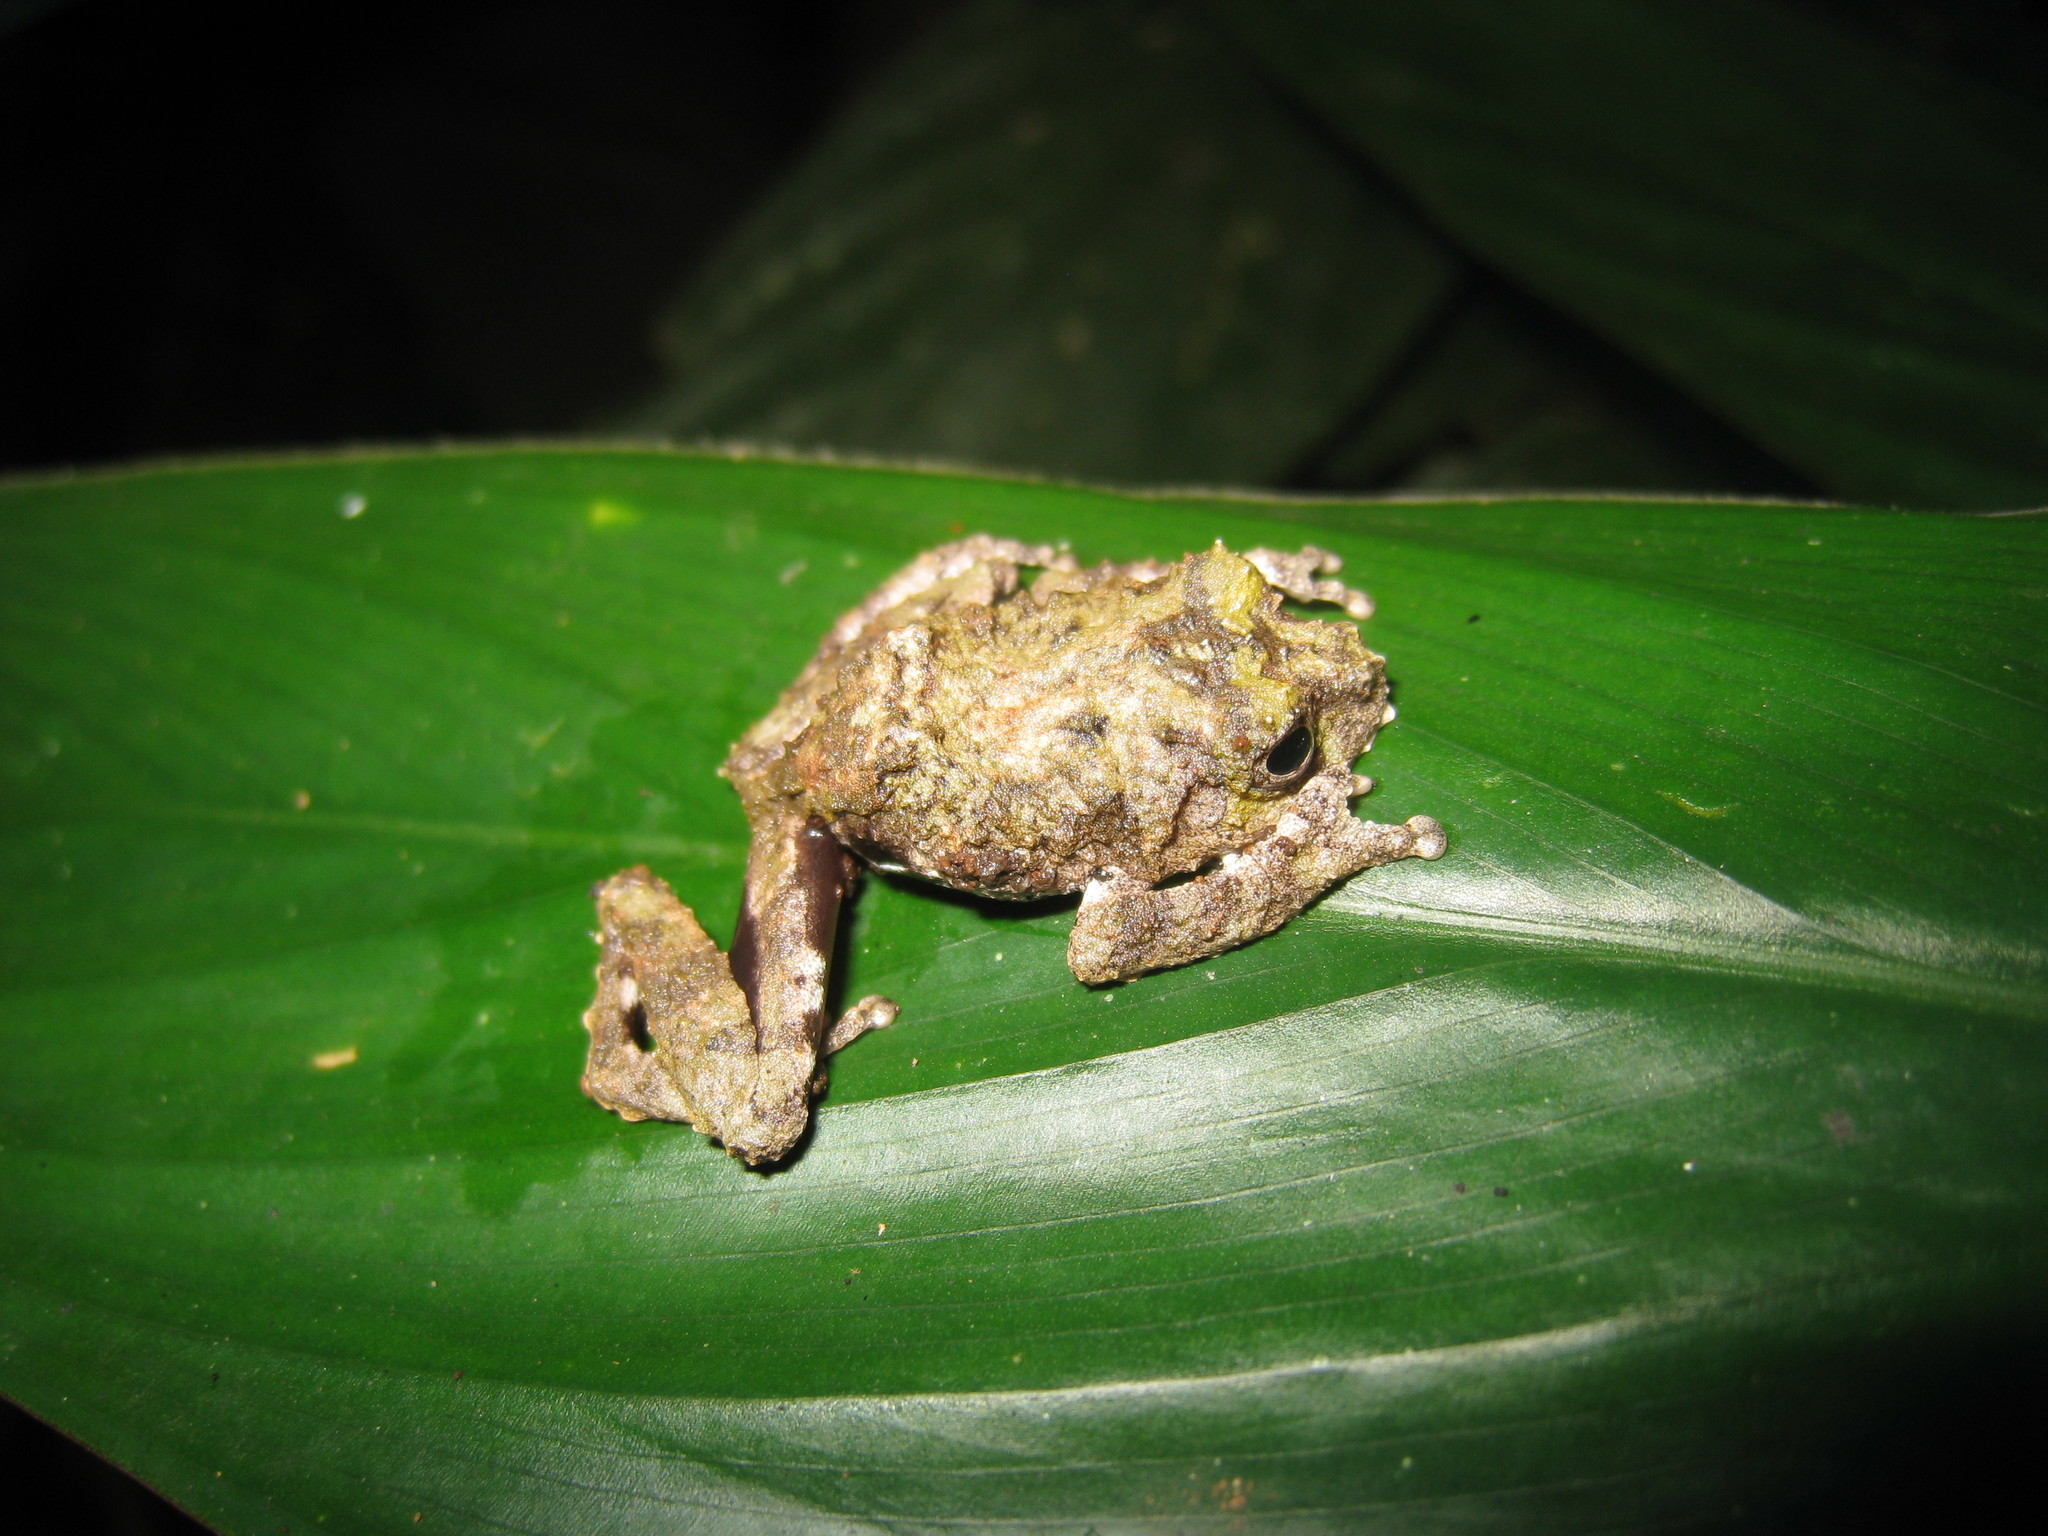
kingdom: Animalia
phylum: Chordata
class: Amphibia
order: Anura
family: Rhacophoridae
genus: Raorchestes
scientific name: Raorchestes keirasabinae
